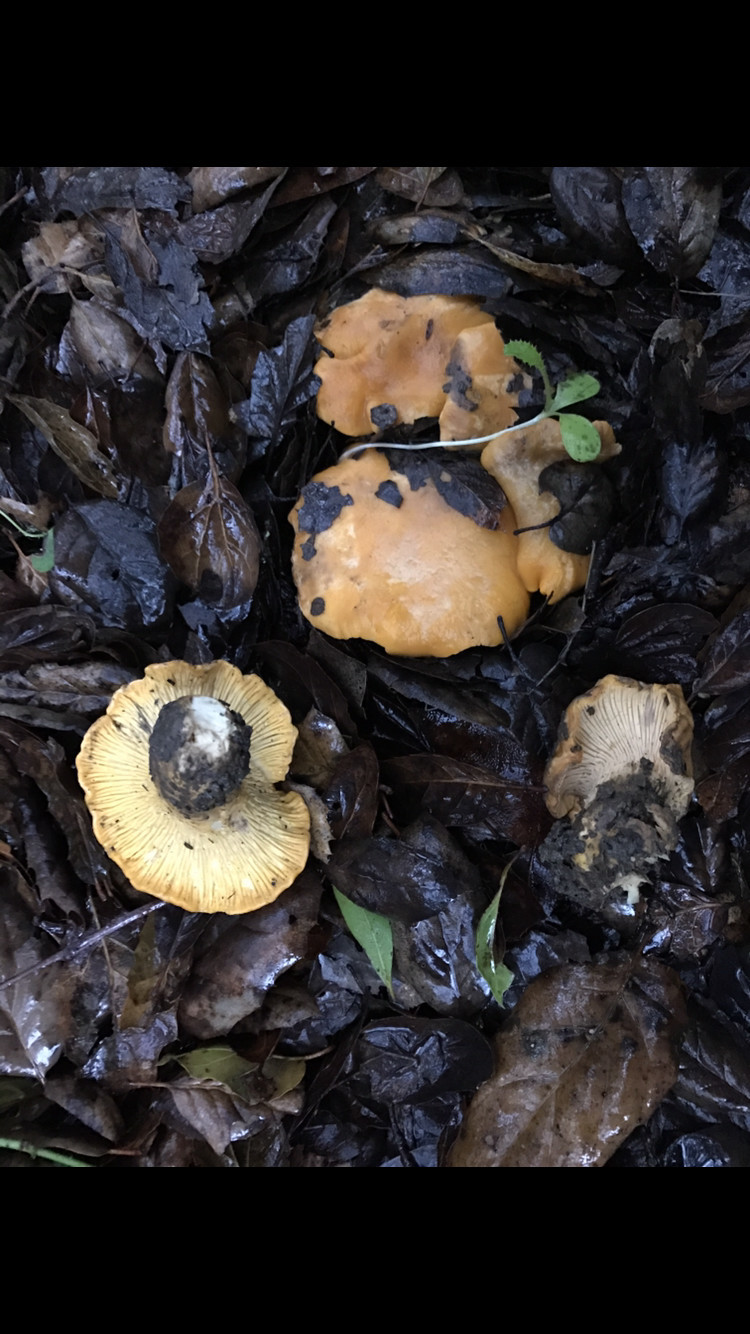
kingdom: Fungi
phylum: Basidiomycota
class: Agaricomycetes
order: Cantharellales
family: Hydnaceae
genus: Cantharellus
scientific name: Cantharellus californicus
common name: California golden chanterelle
